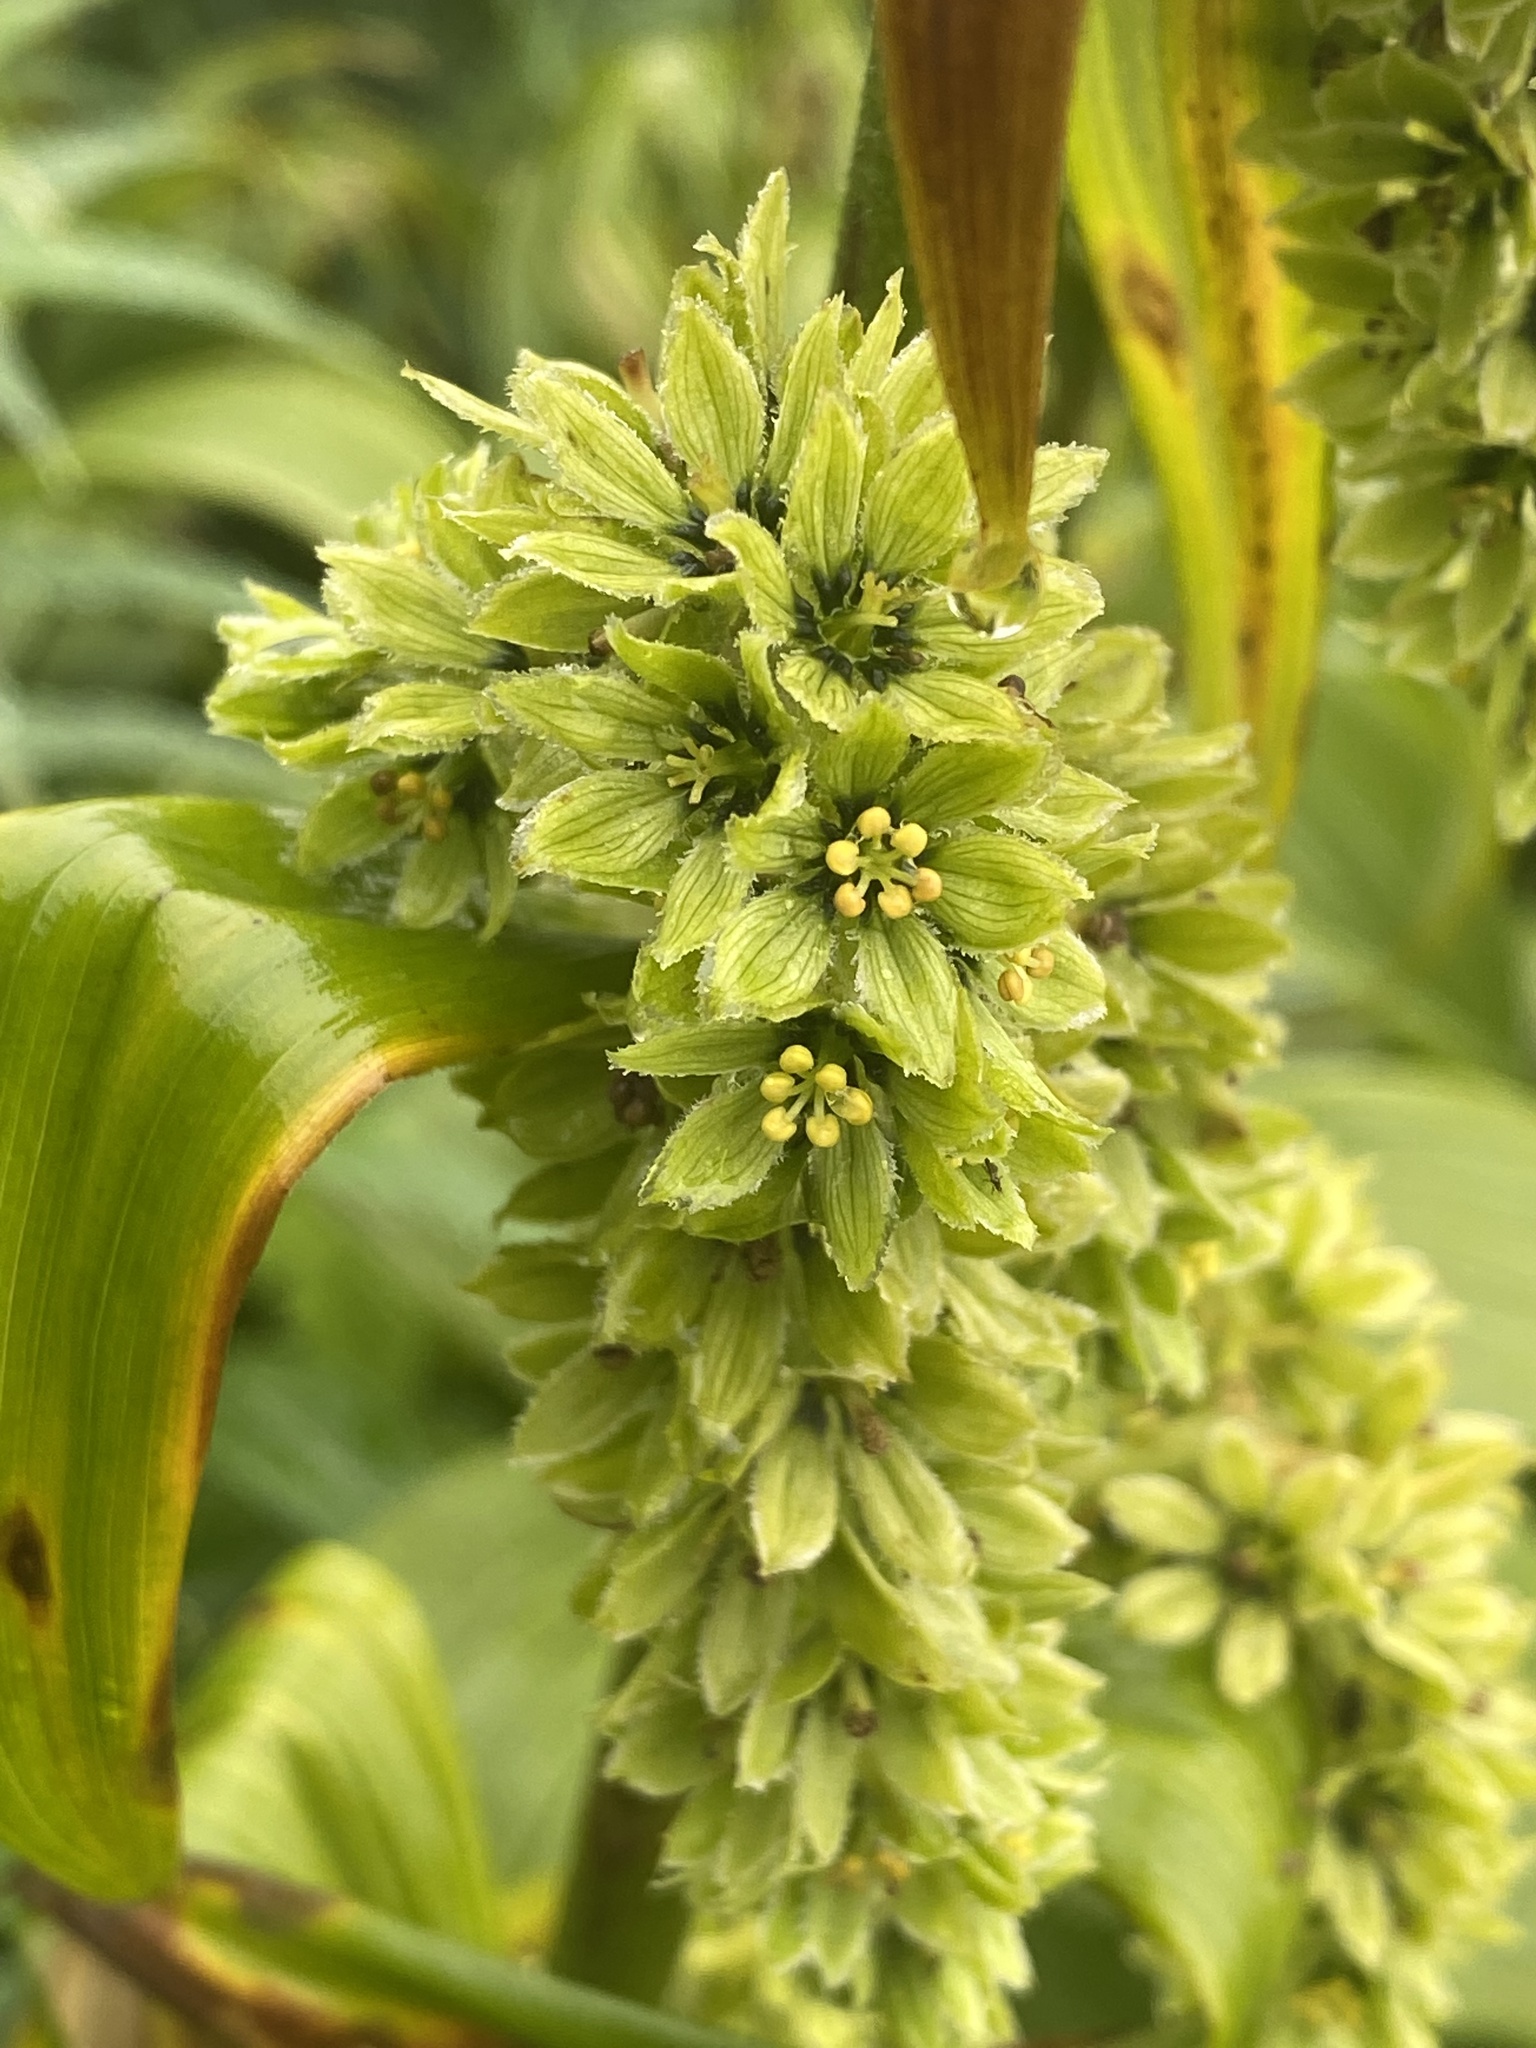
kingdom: Plantae
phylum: Tracheophyta
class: Liliopsida
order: Liliales
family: Melanthiaceae
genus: Veratrum
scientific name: Veratrum viride
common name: American false hellebore
